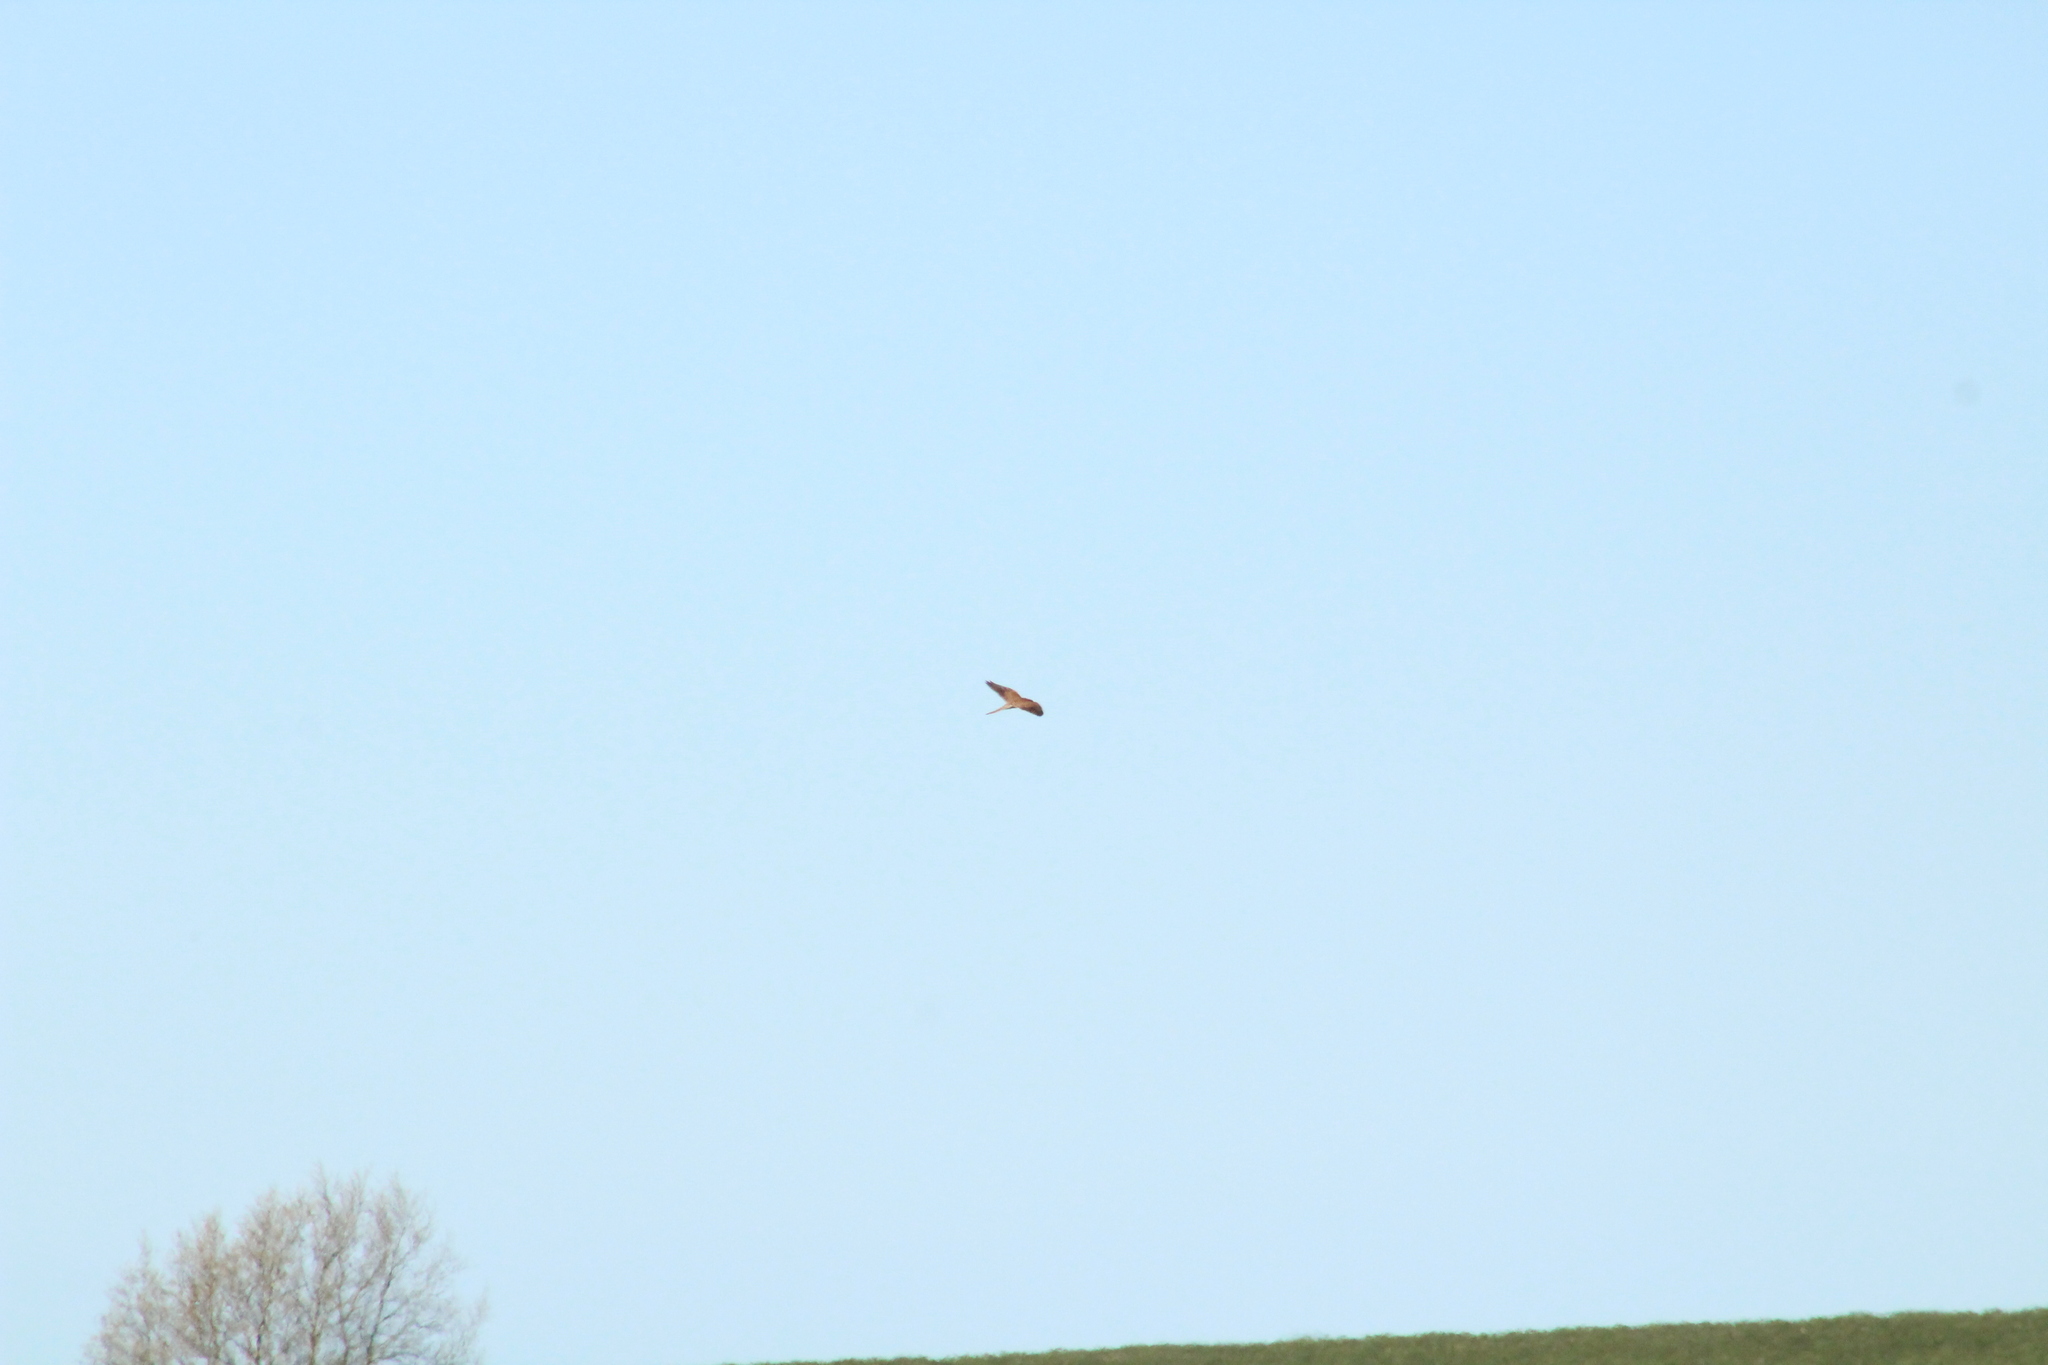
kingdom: Animalia
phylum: Chordata
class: Aves
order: Falconiformes
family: Falconidae
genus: Falco
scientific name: Falco tinnunculus
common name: Common kestrel
